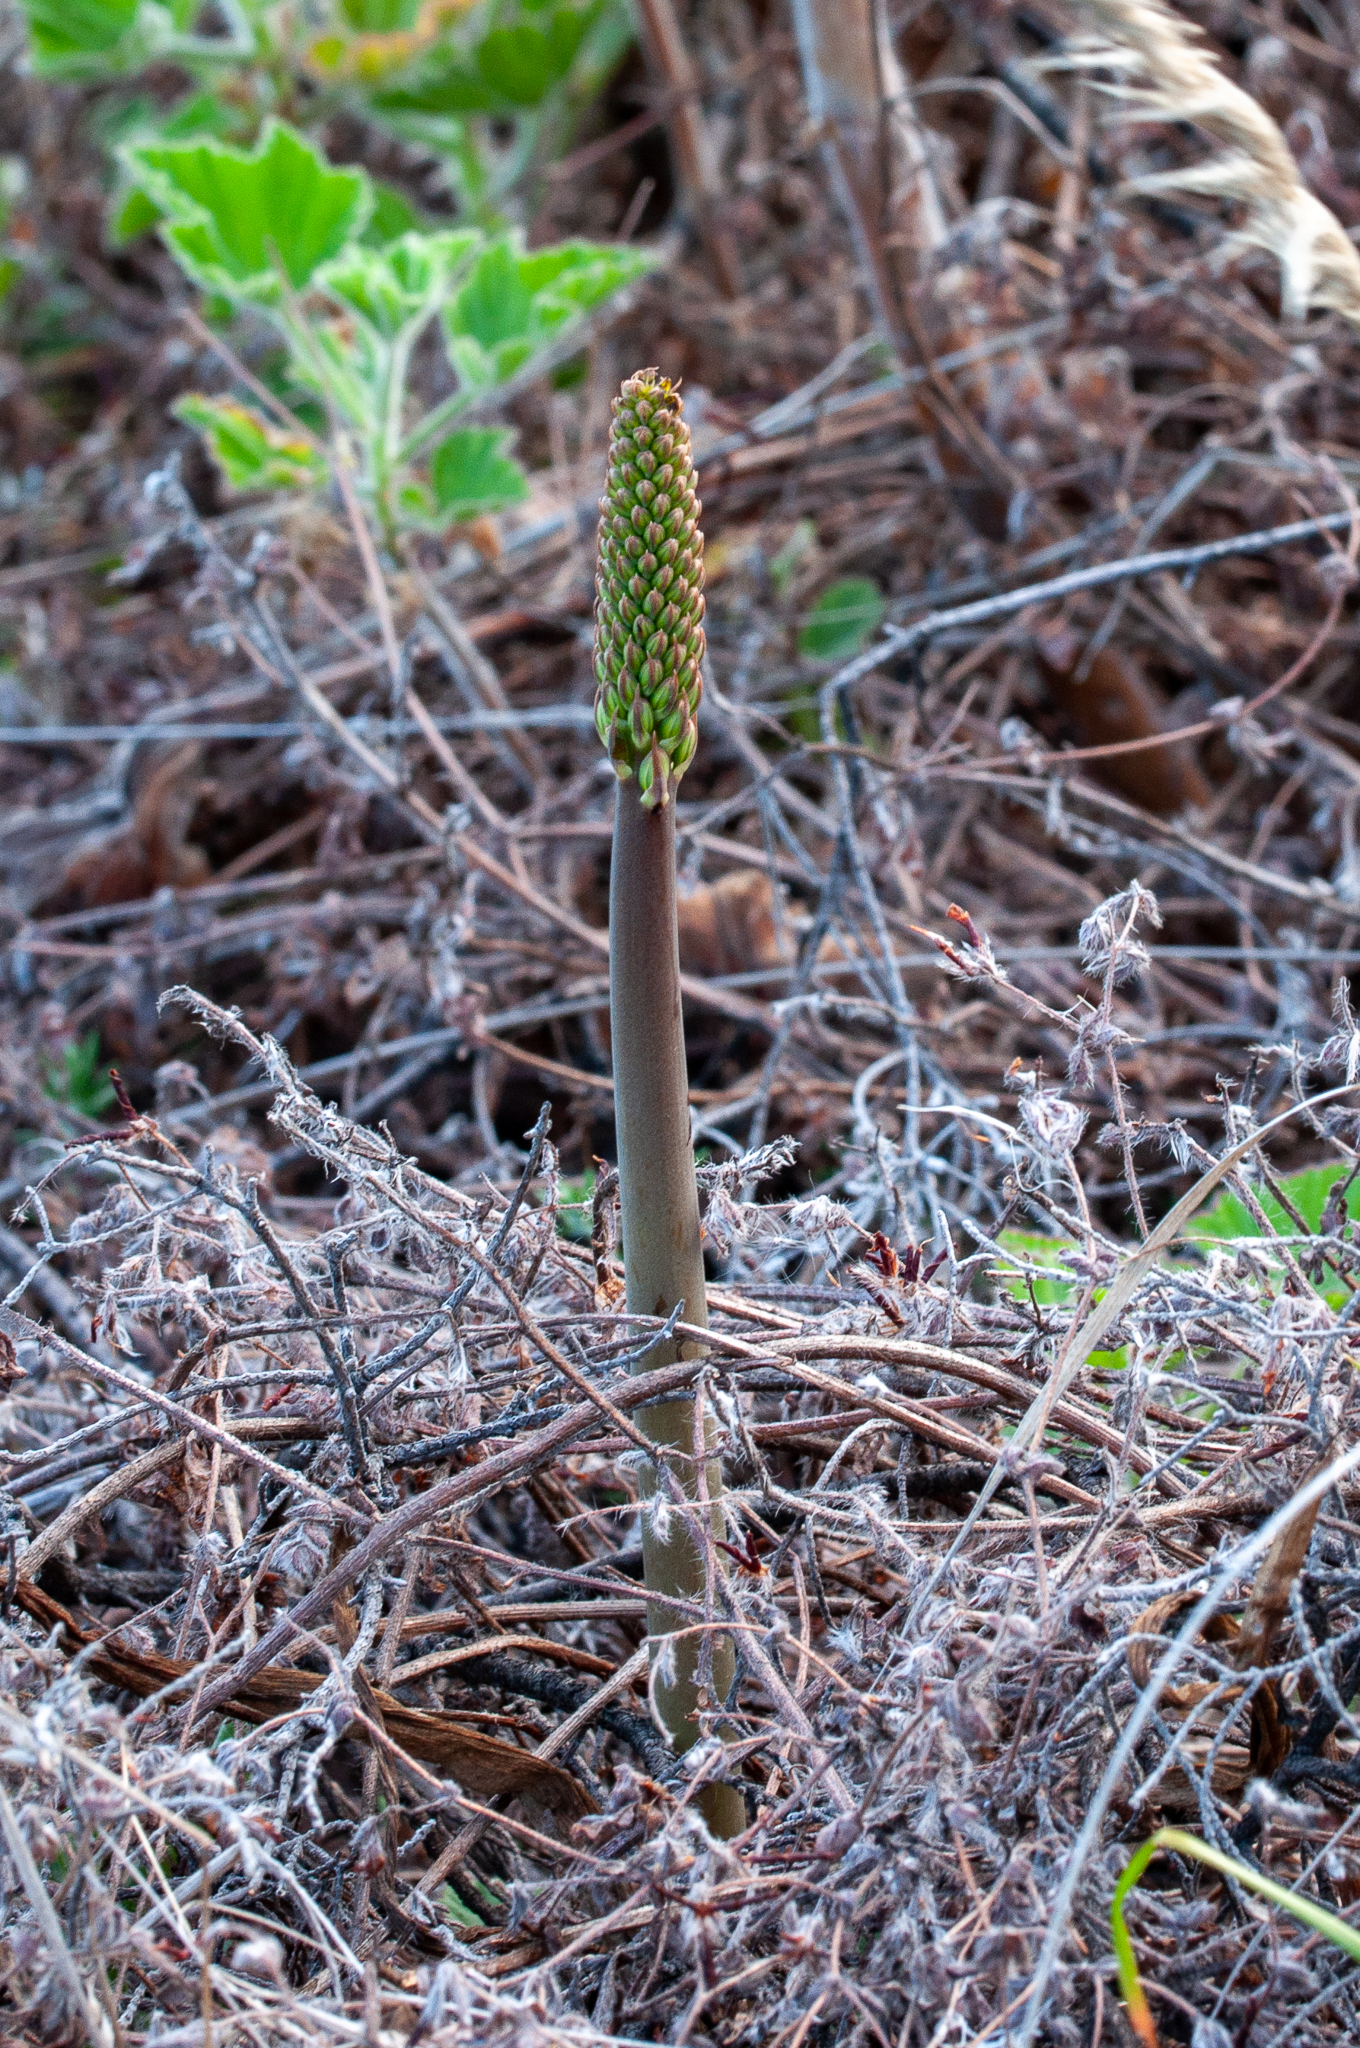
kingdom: Plantae
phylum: Tracheophyta
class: Liliopsida
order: Asparagales
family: Asphodelaceae
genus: Bulbine
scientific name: Bulbine cepacea
